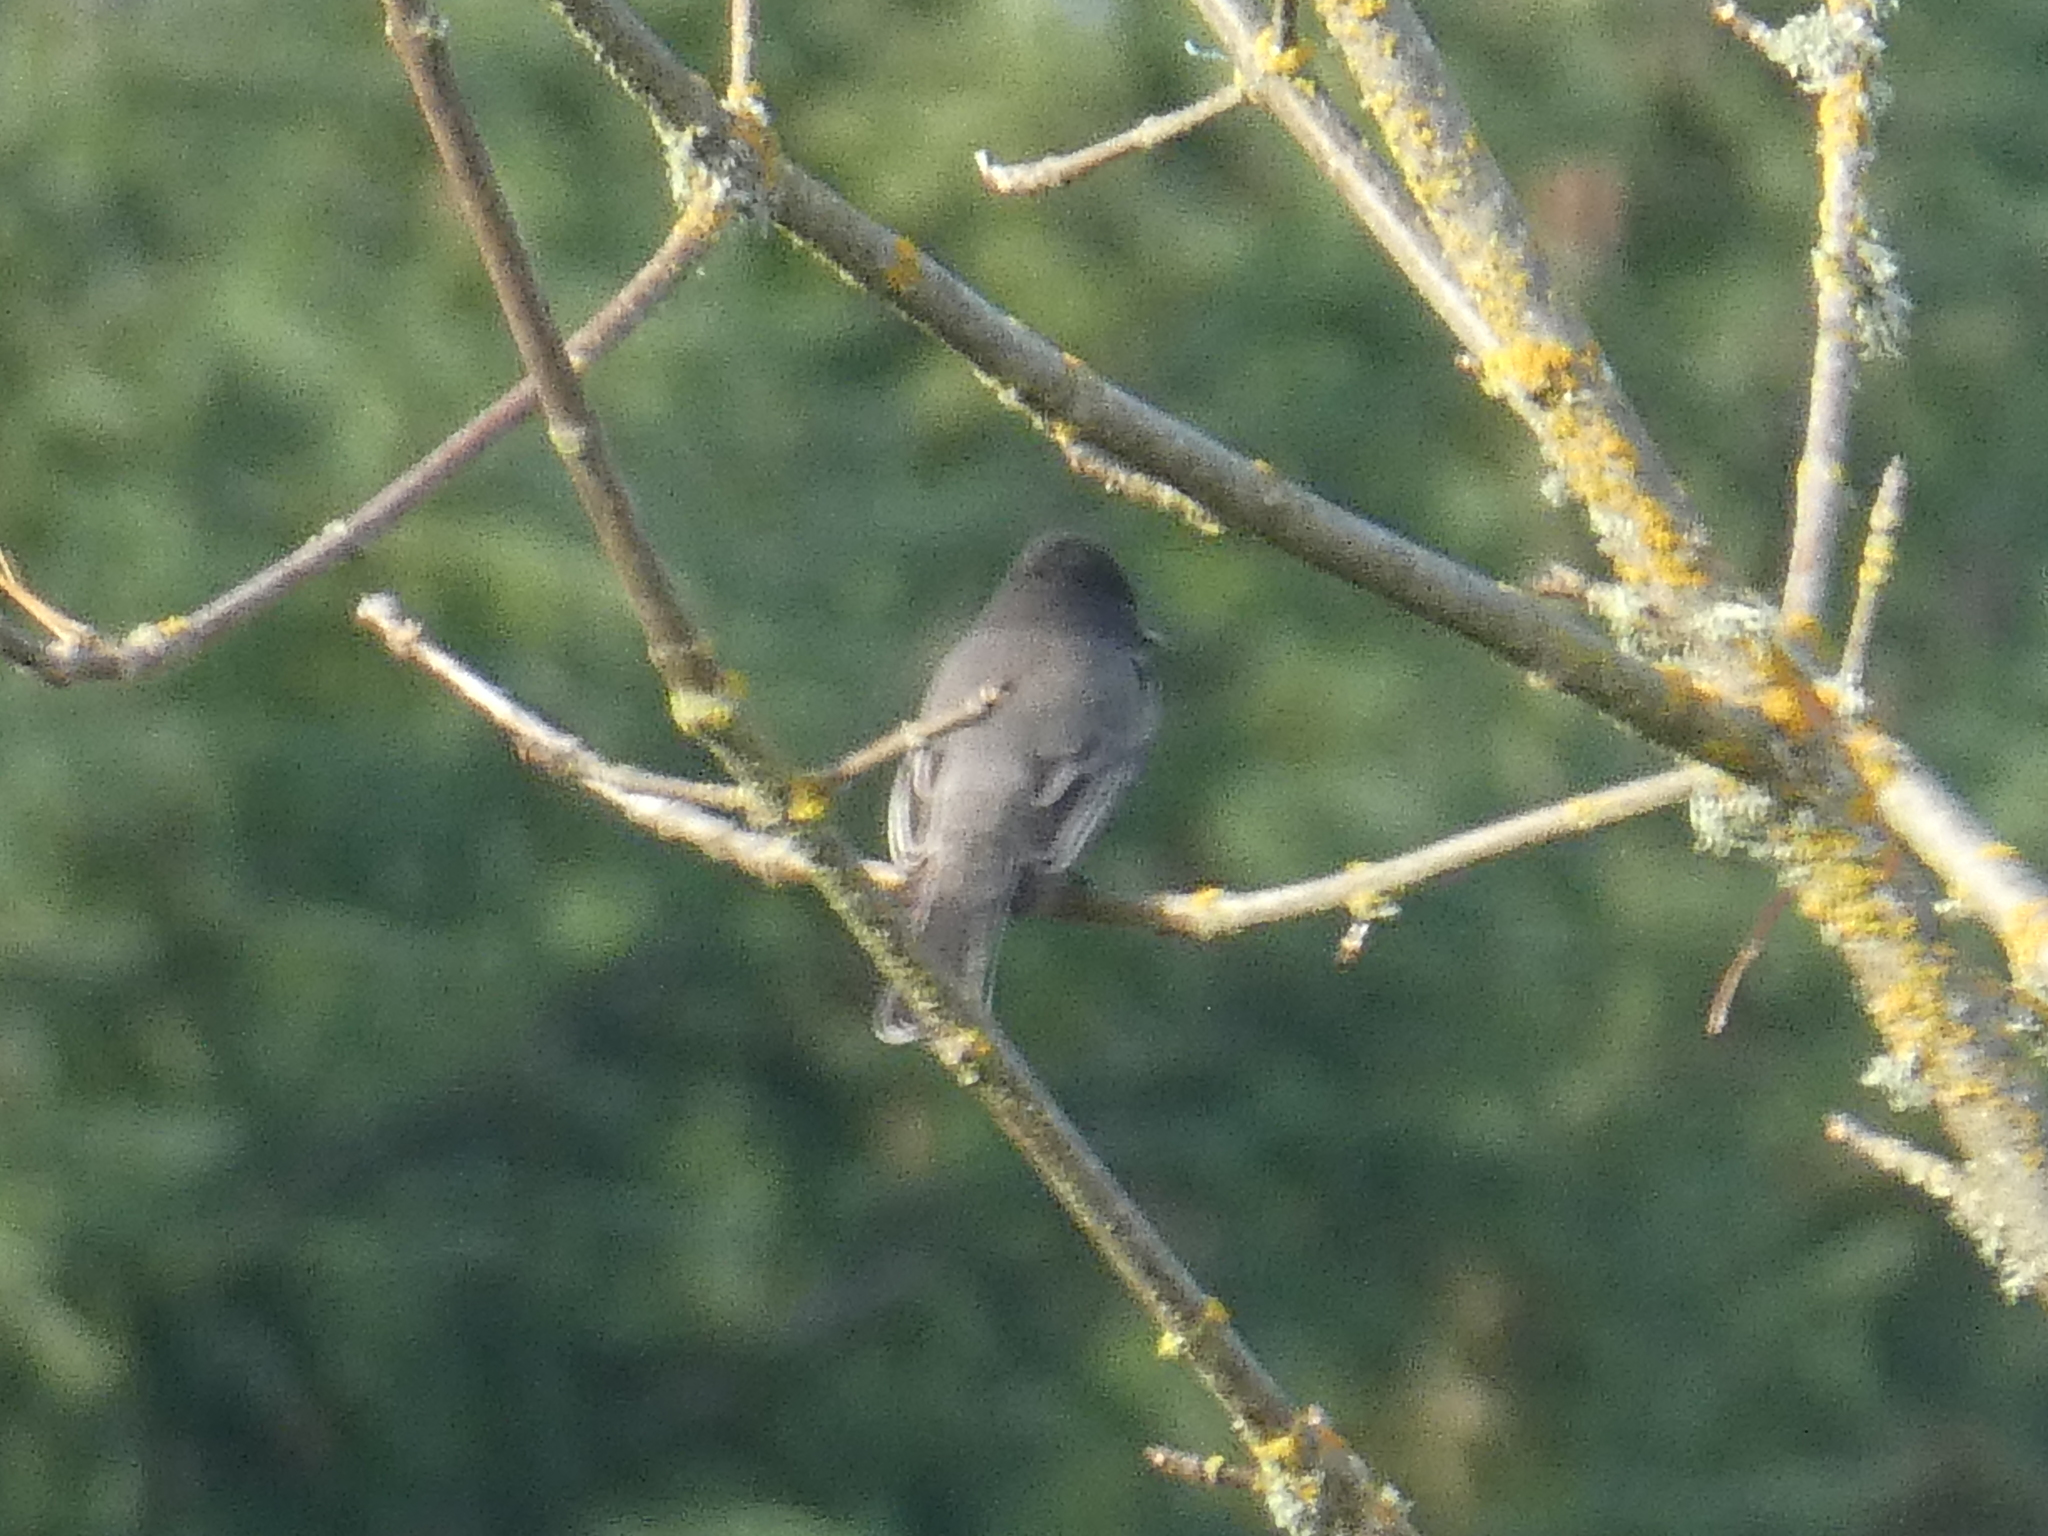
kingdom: Animalia
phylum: Chordata
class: Aves
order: Passeriformes
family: Tyrannidae
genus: Sayornis
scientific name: Sayornis nigricans
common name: Black phoebe
